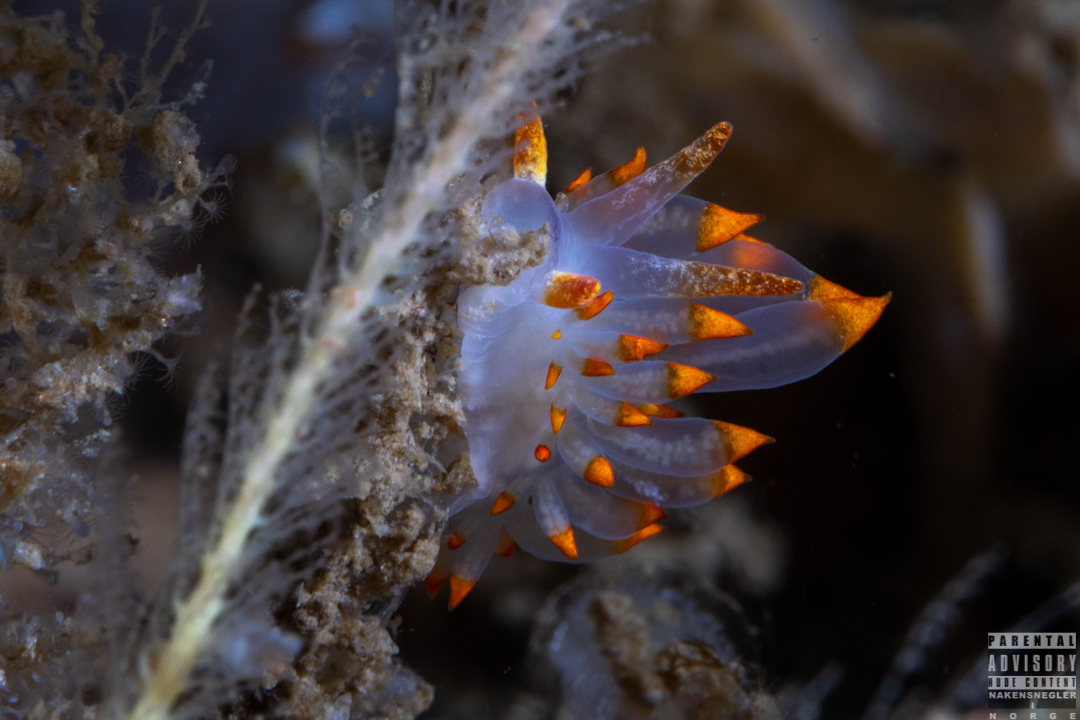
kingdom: Animalia
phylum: Mollusca
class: Gastropoda
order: Nudibranchia
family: Eubranchidae
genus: Amphorina
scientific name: Amphorina farrani
